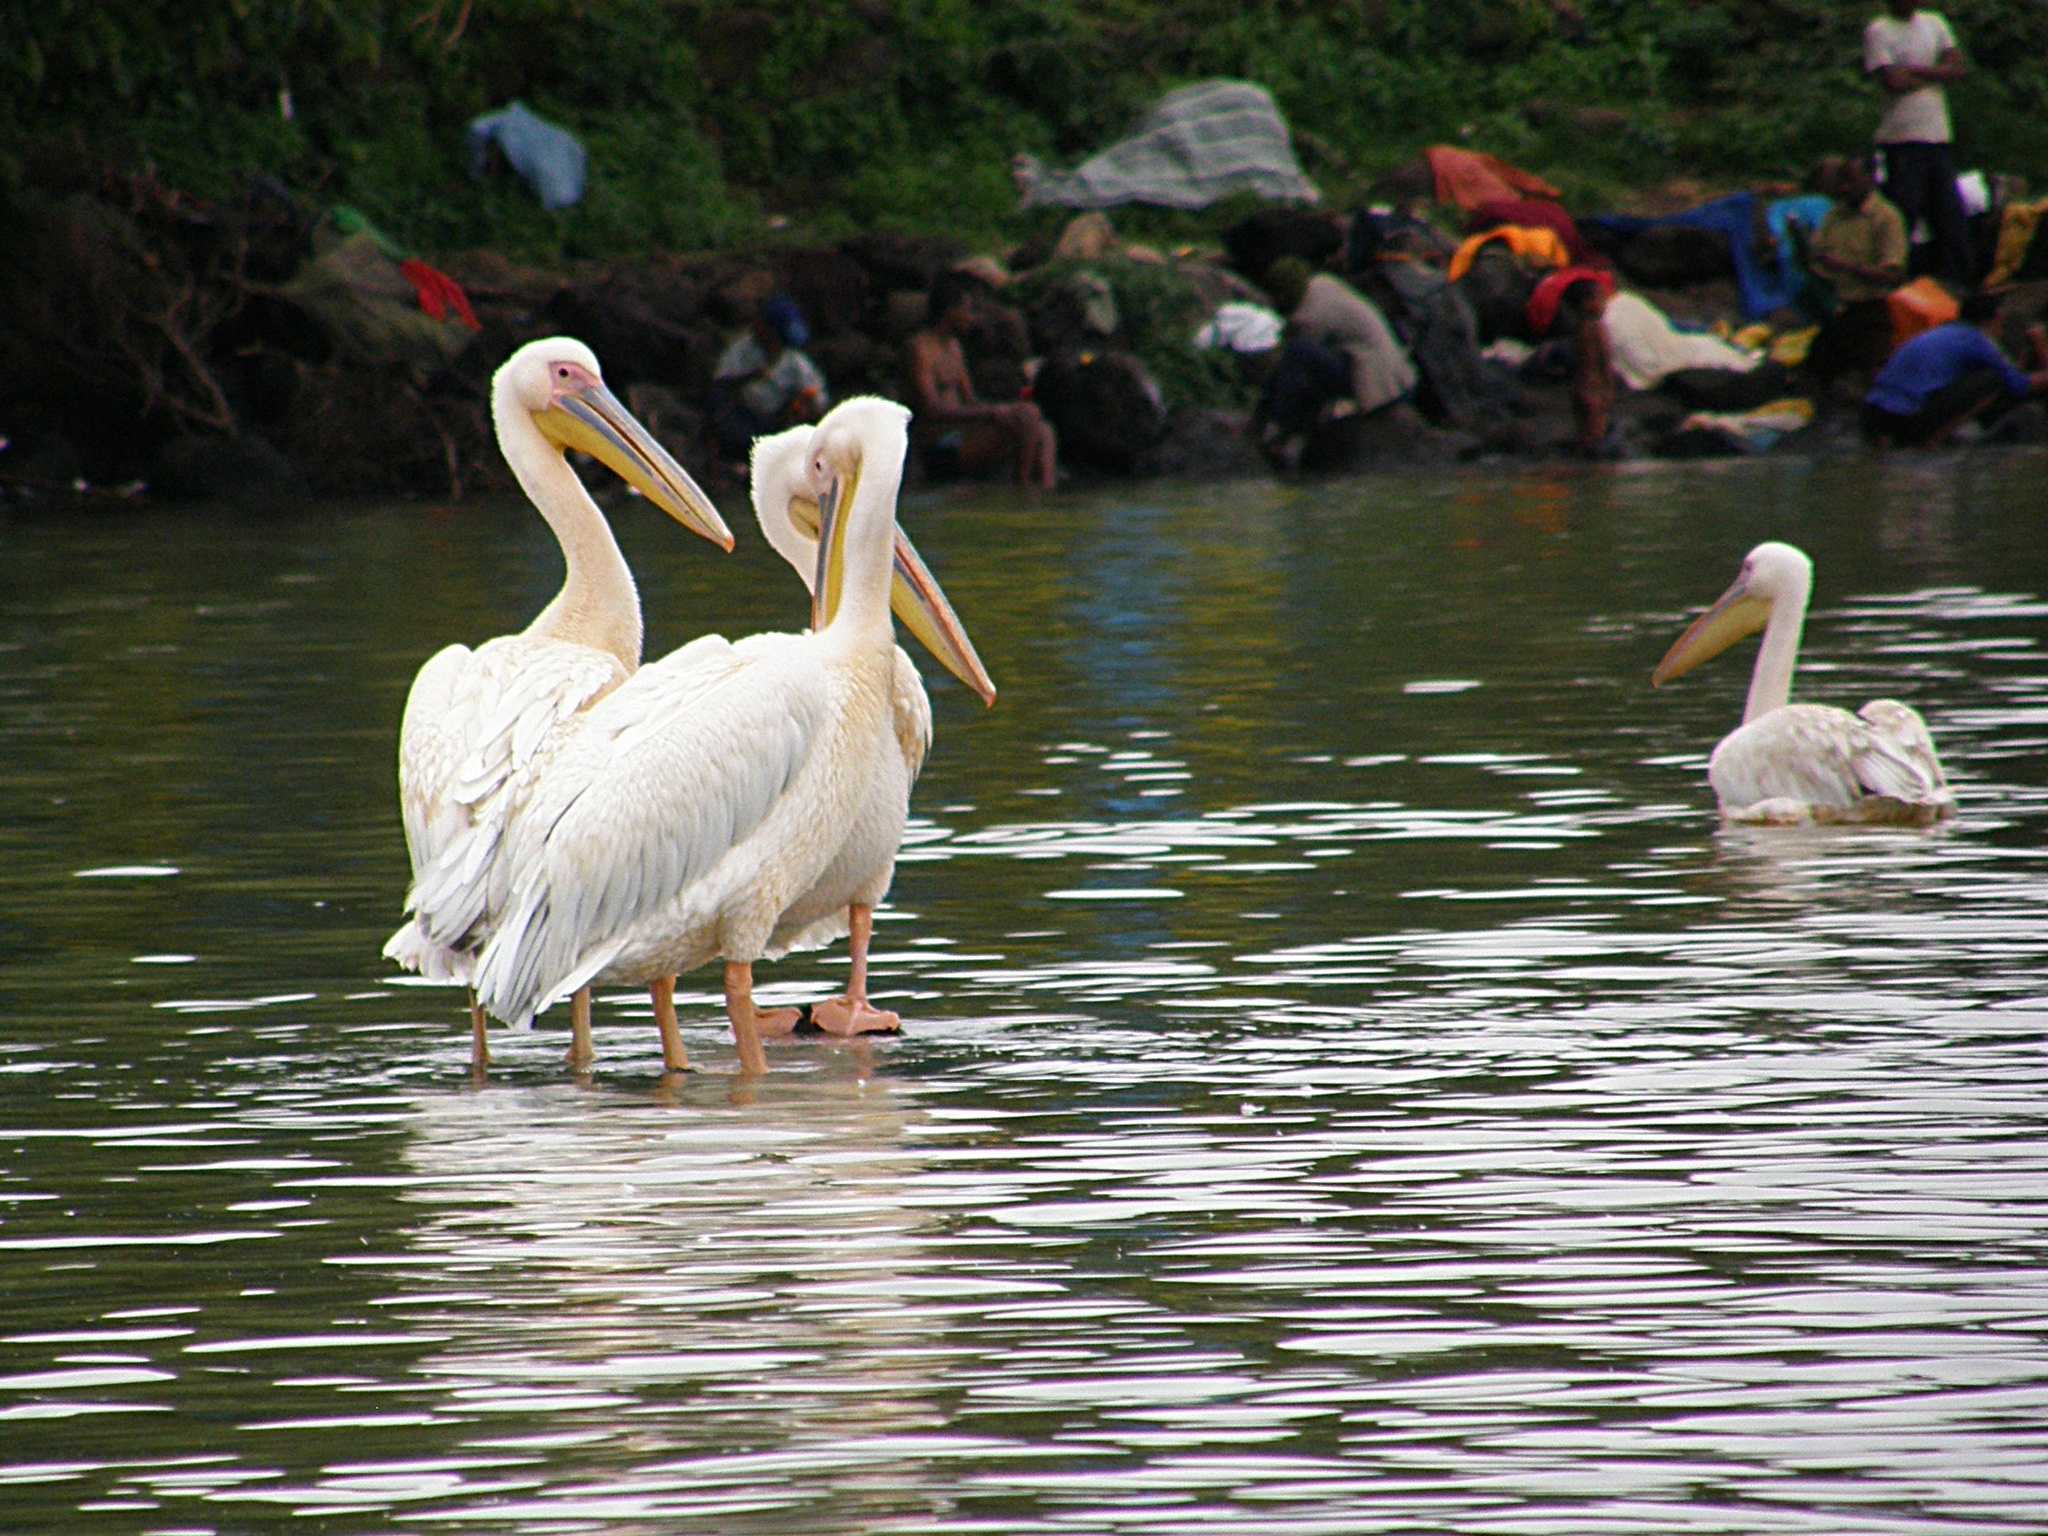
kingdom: Animalia
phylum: Chordata
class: Aves
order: Pelecaniformes
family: Pelecanidae
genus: Pelecanus
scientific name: Pelecanus onocrotalus
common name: Great white pelican
